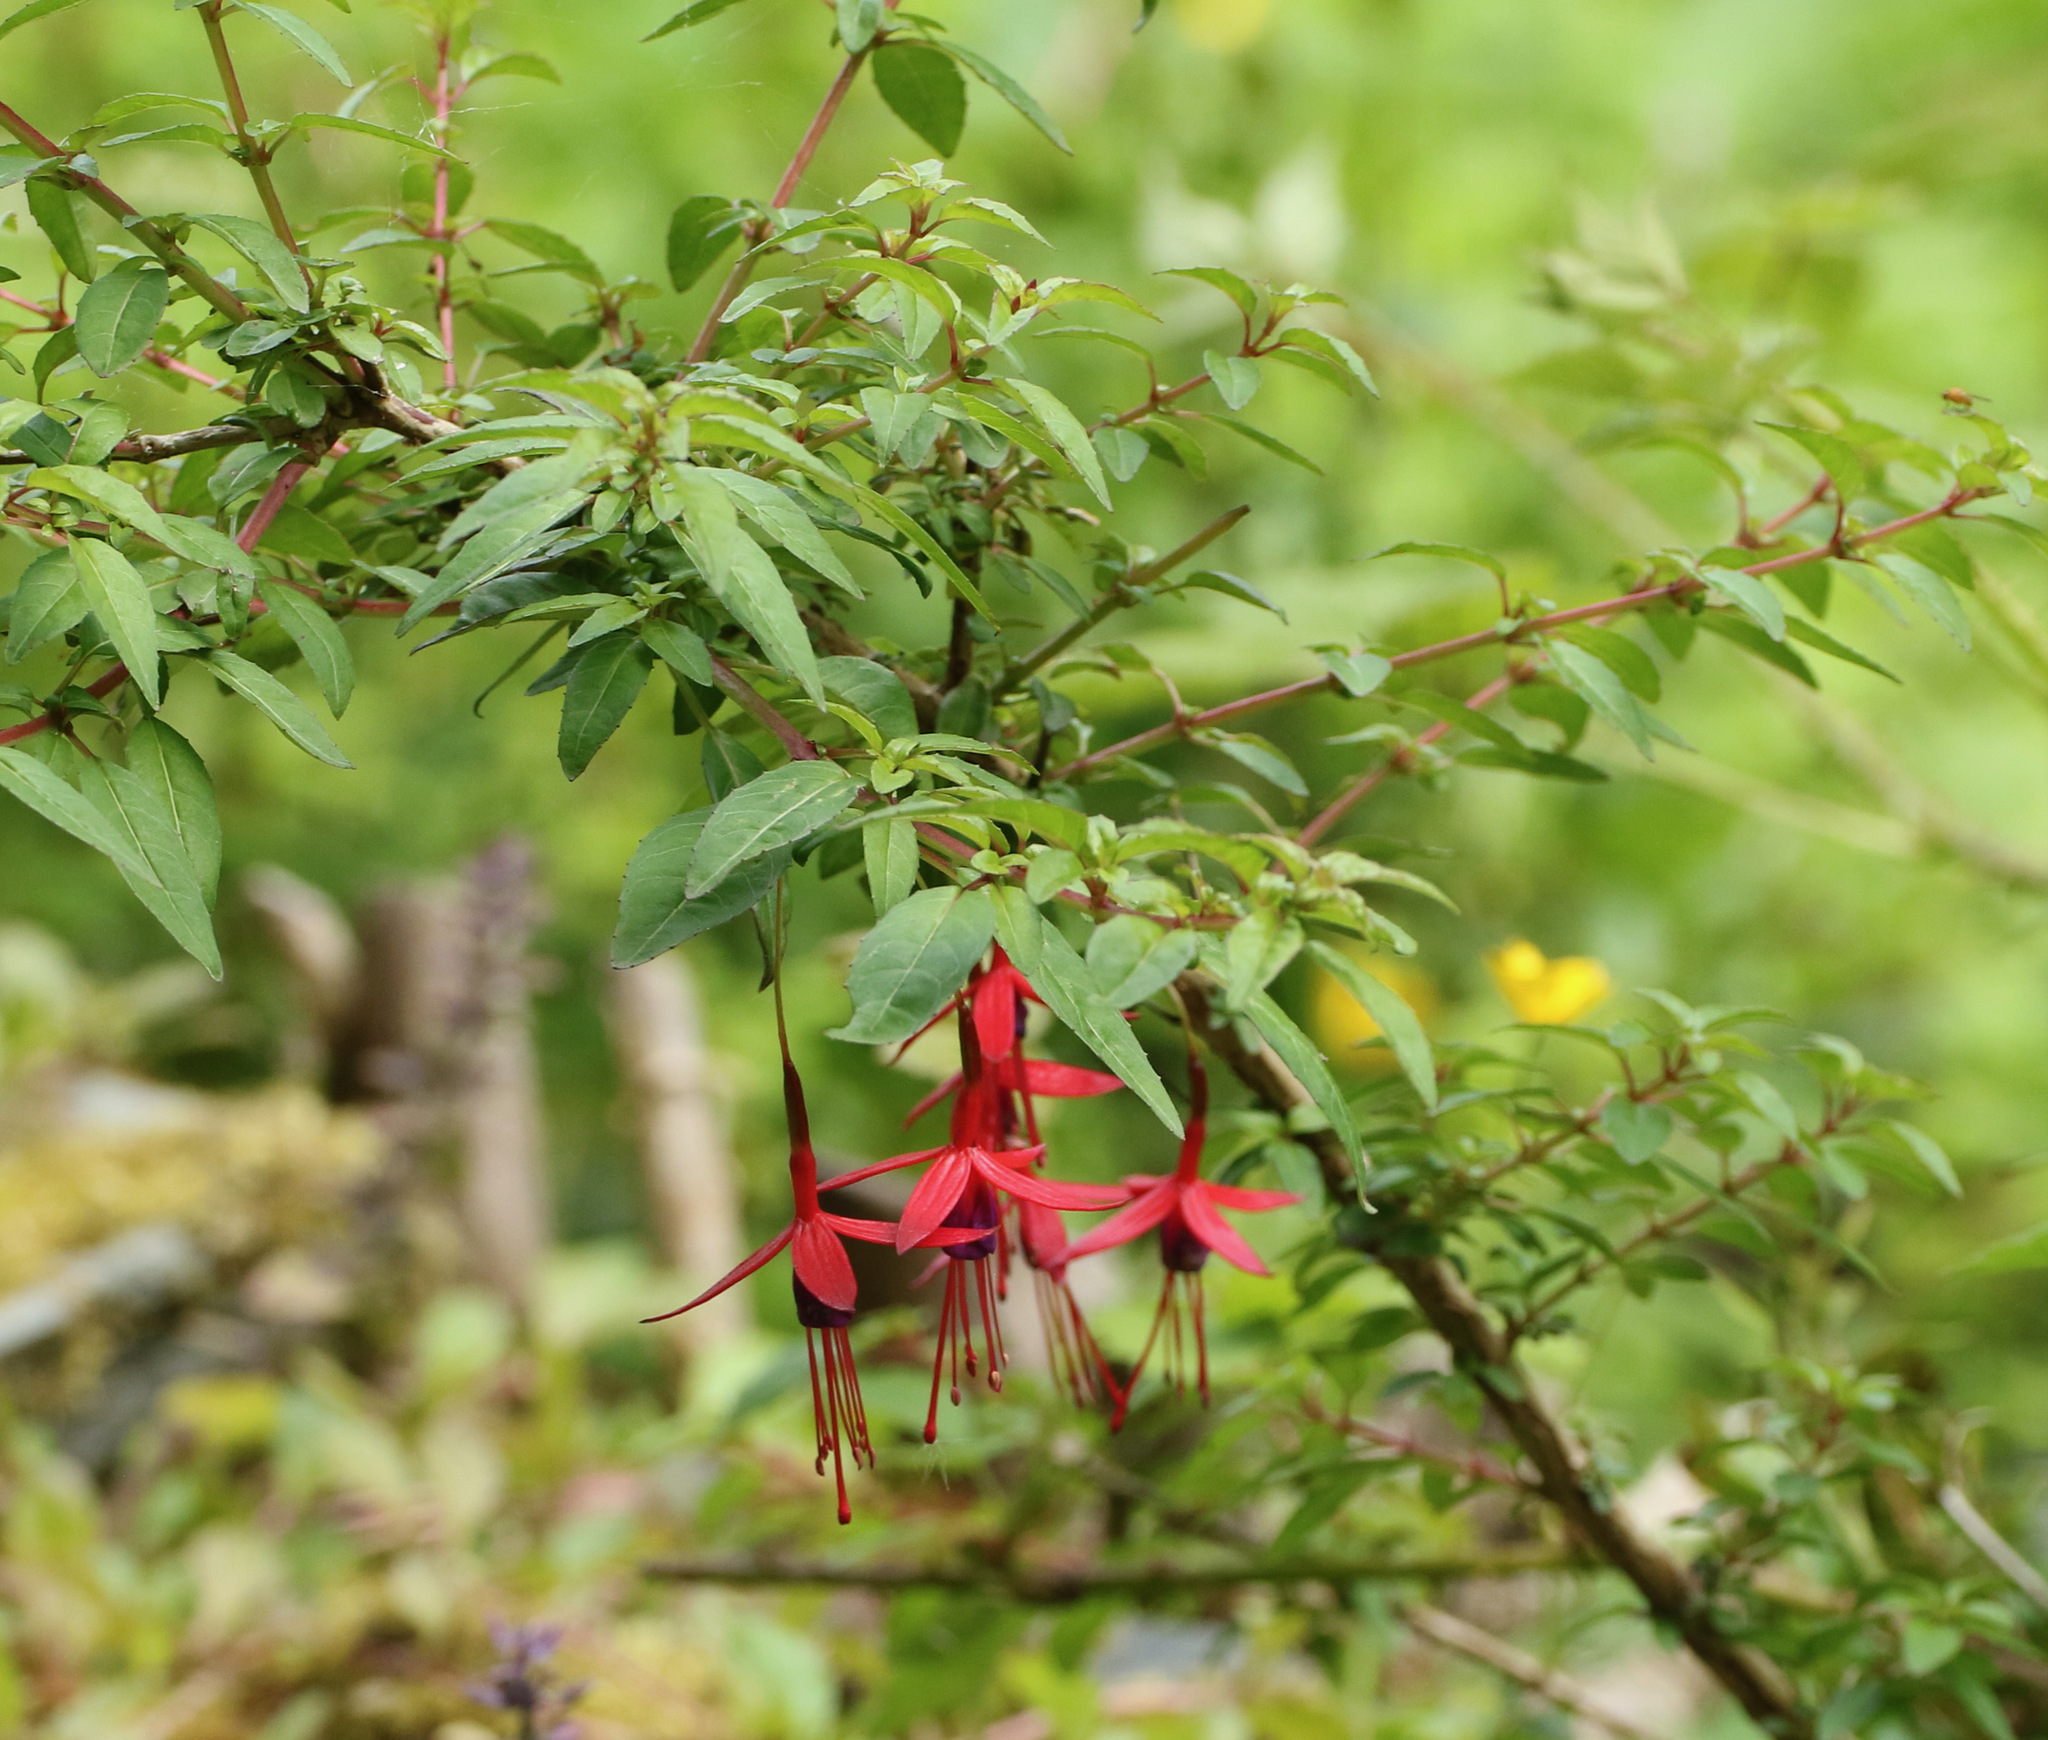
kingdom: Plantae
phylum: Tracheophyta
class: Magnoliopsida
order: Myrtales
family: Onagraceae
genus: Fuchsia
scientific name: Fuchsia magellanica
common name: Hardy fuchsia
